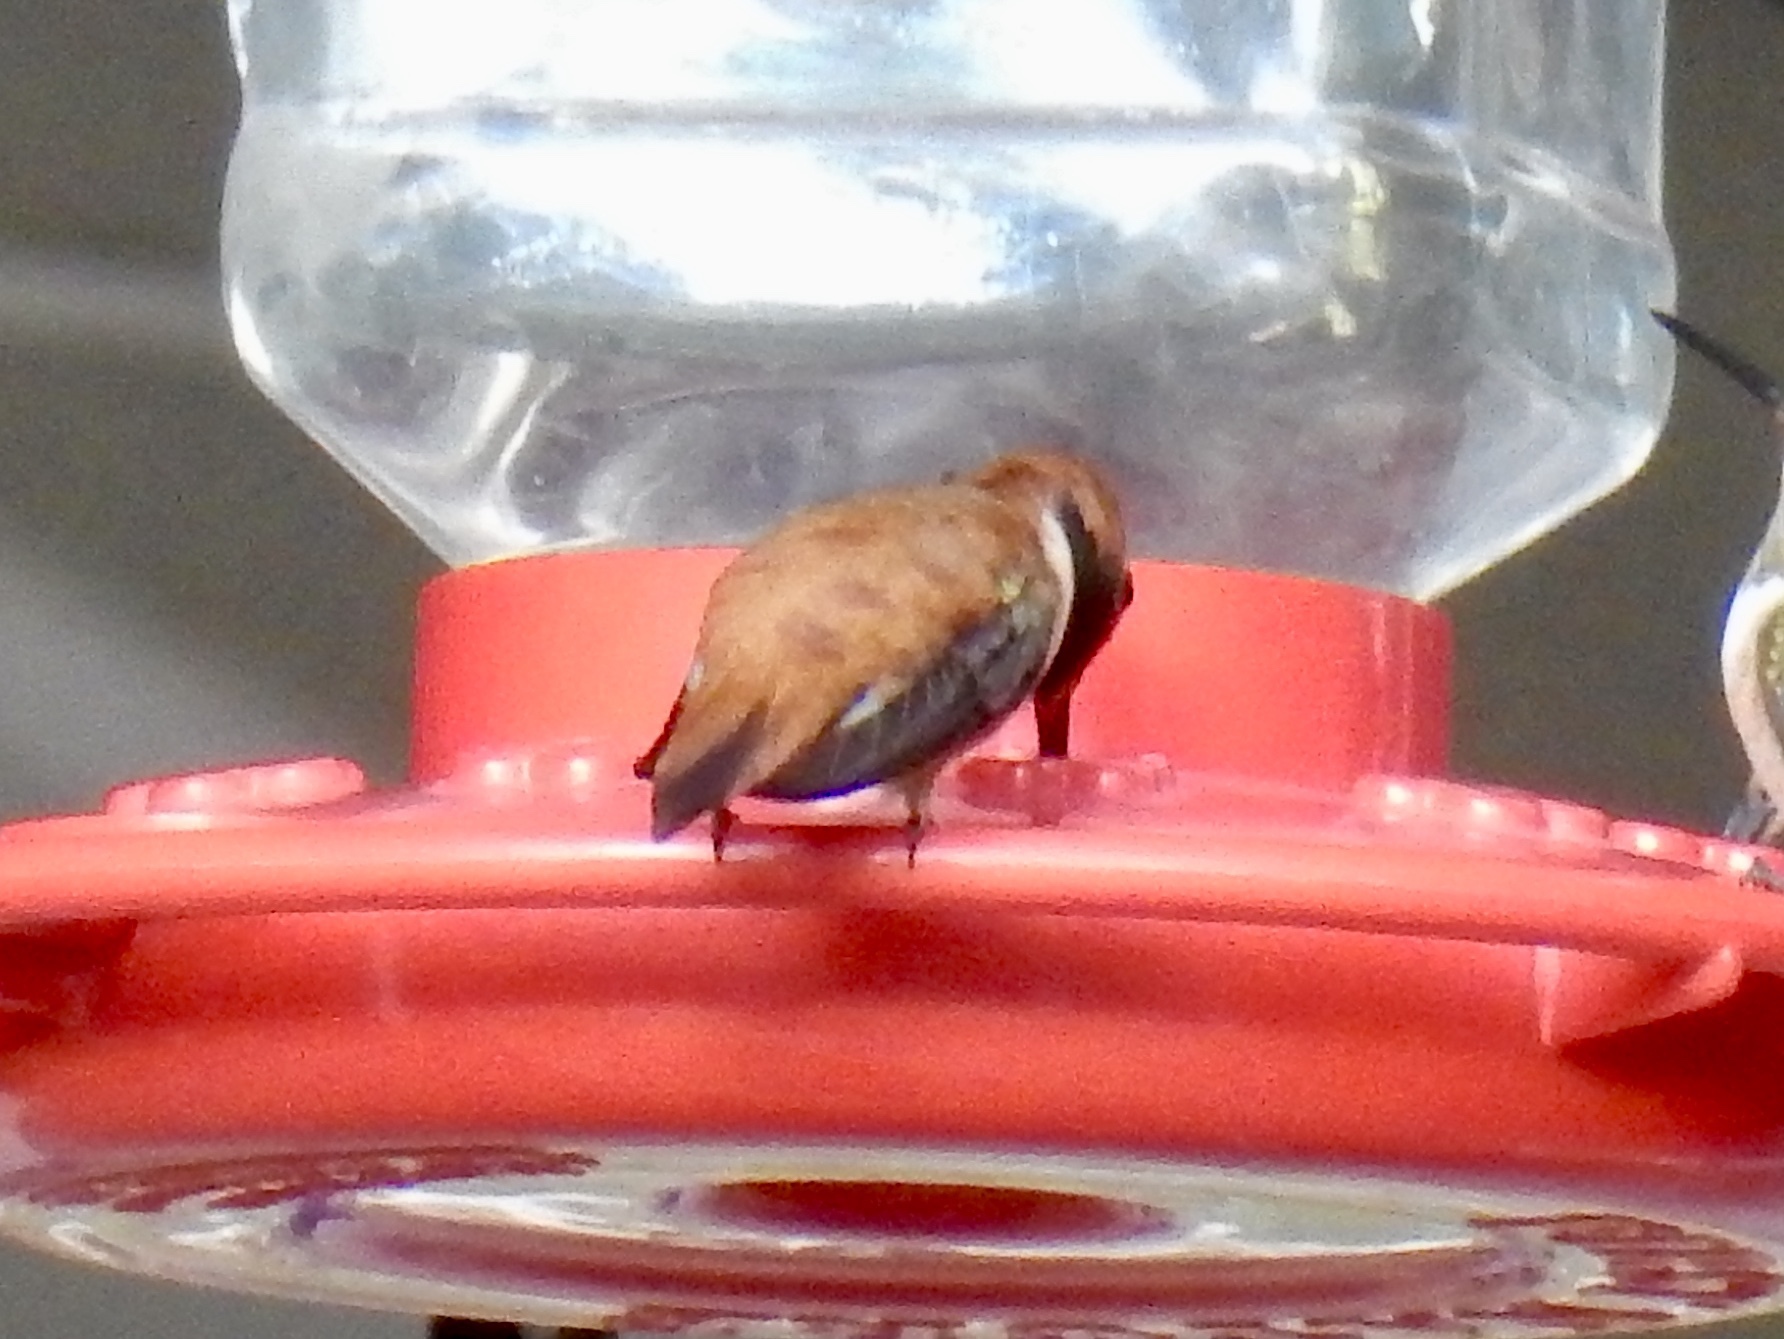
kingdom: Animalia
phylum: Chordata
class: Aves
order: Apodiformes
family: Trochilidae
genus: Selasphorus
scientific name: Selasphorus rufus
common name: Rufous hummingbird
